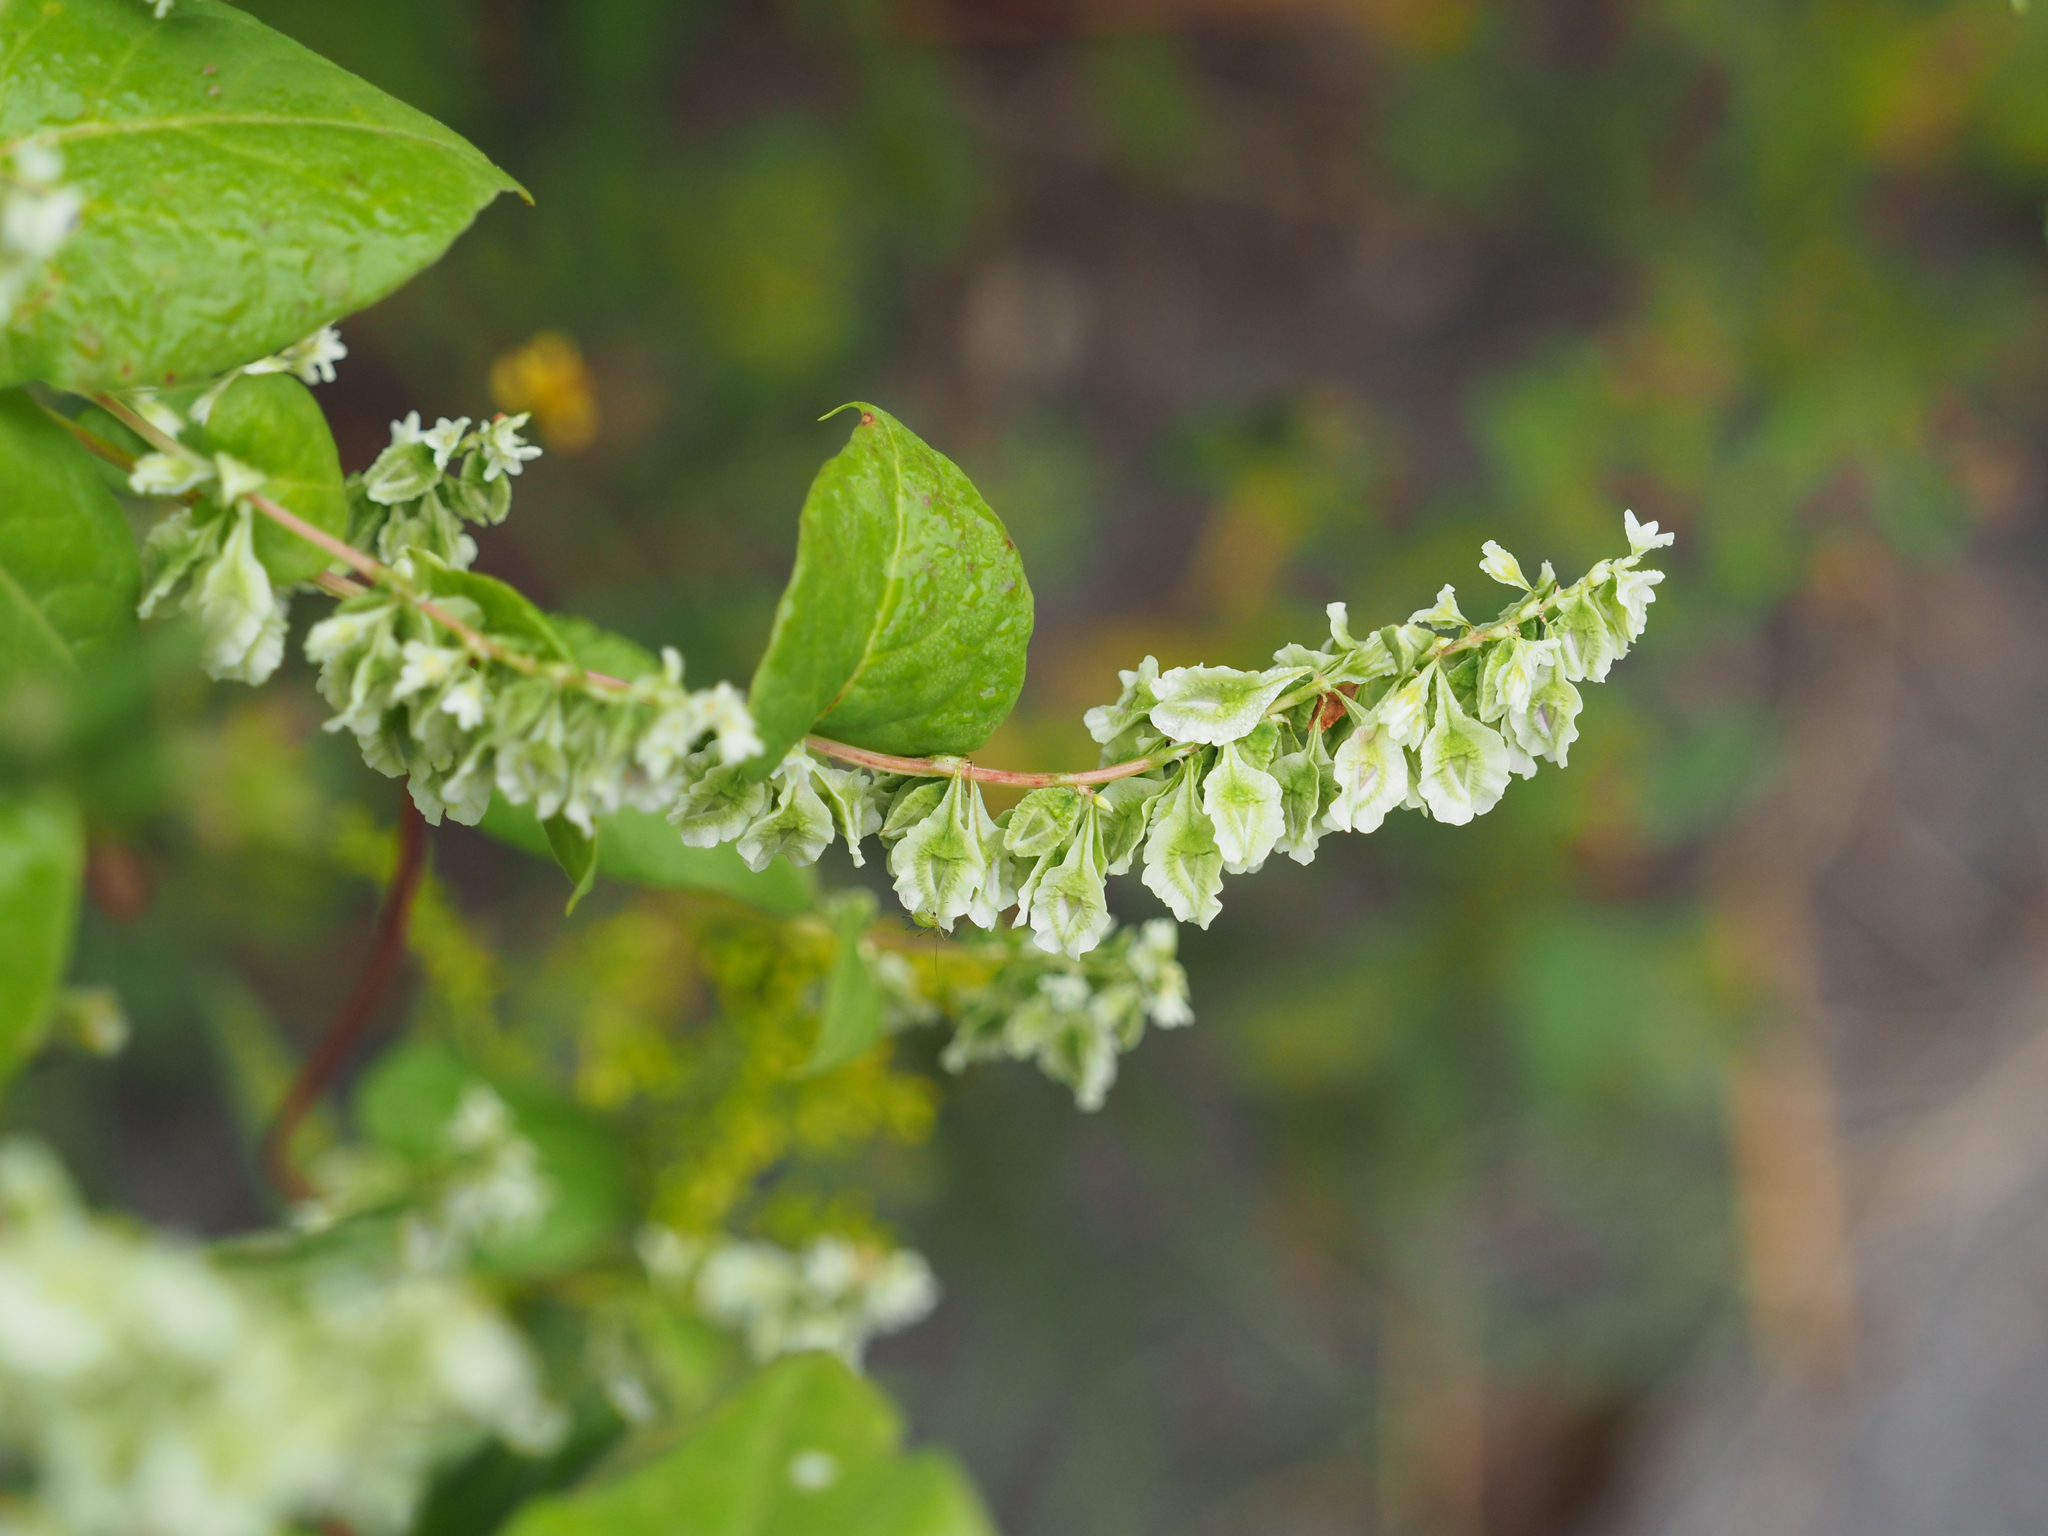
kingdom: Plantae
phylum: Tracheophyta
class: Magnoliopsida
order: Caryophyllales
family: Polygonaceae
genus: Fallopia
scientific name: Fallopia scandens
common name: Climbing false buckwheat
